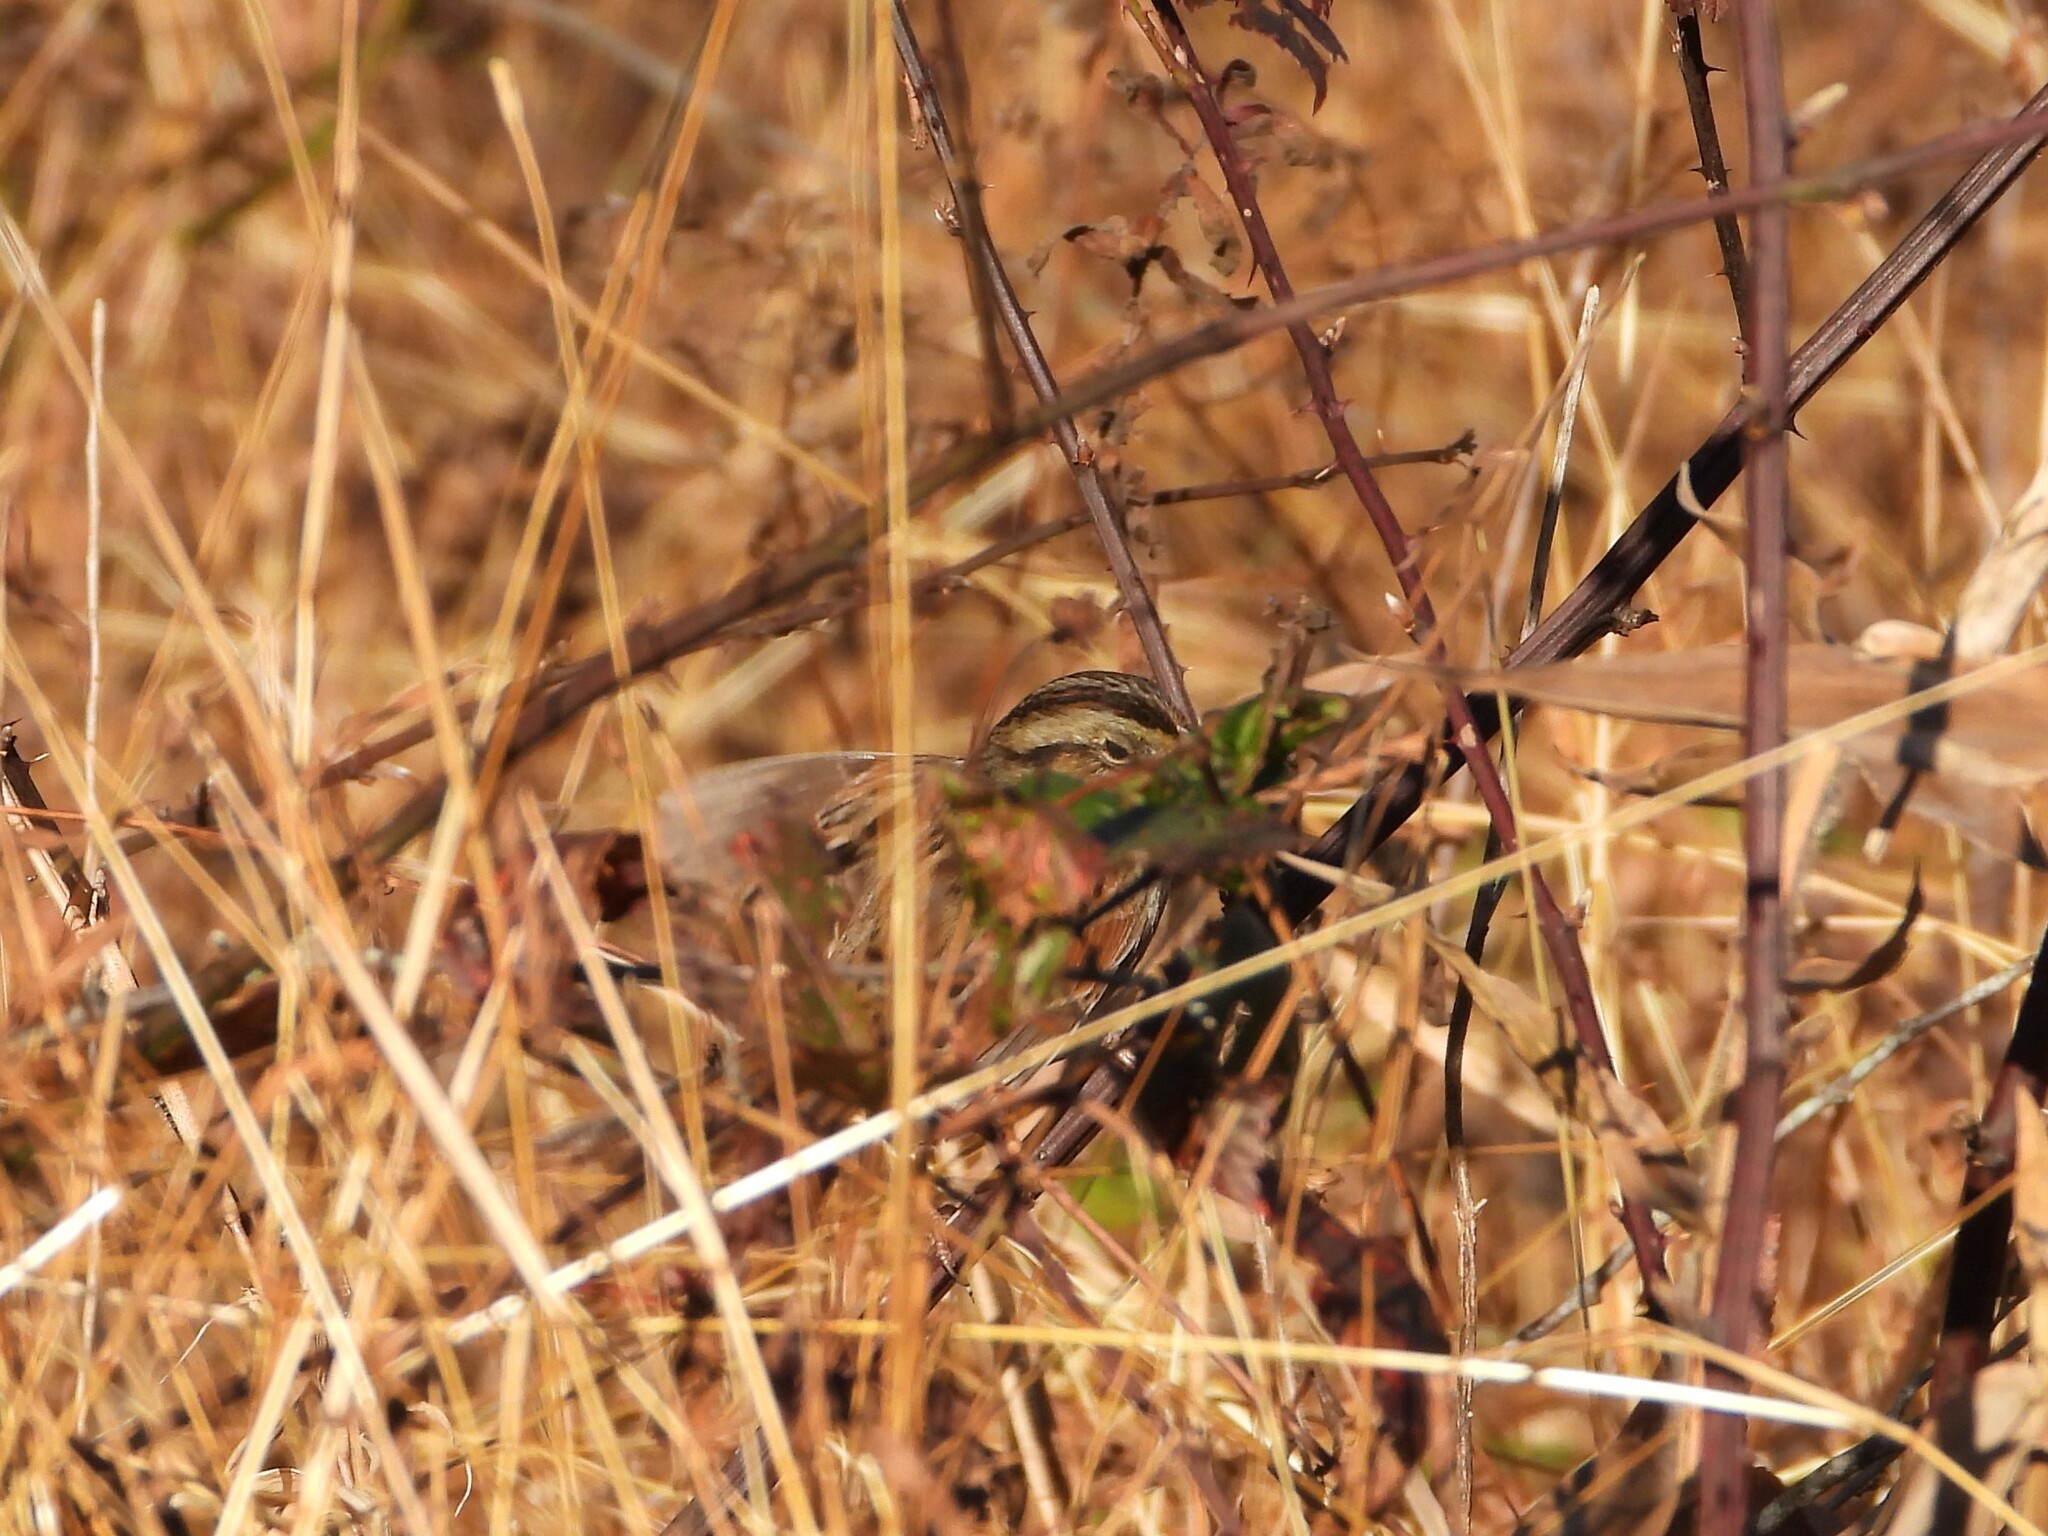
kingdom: Animalia
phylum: Chordata
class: Aves
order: Passeriformes
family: Passerellidae
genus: Melospiza
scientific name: Melospiza georgiana
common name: Swamp sparrow
